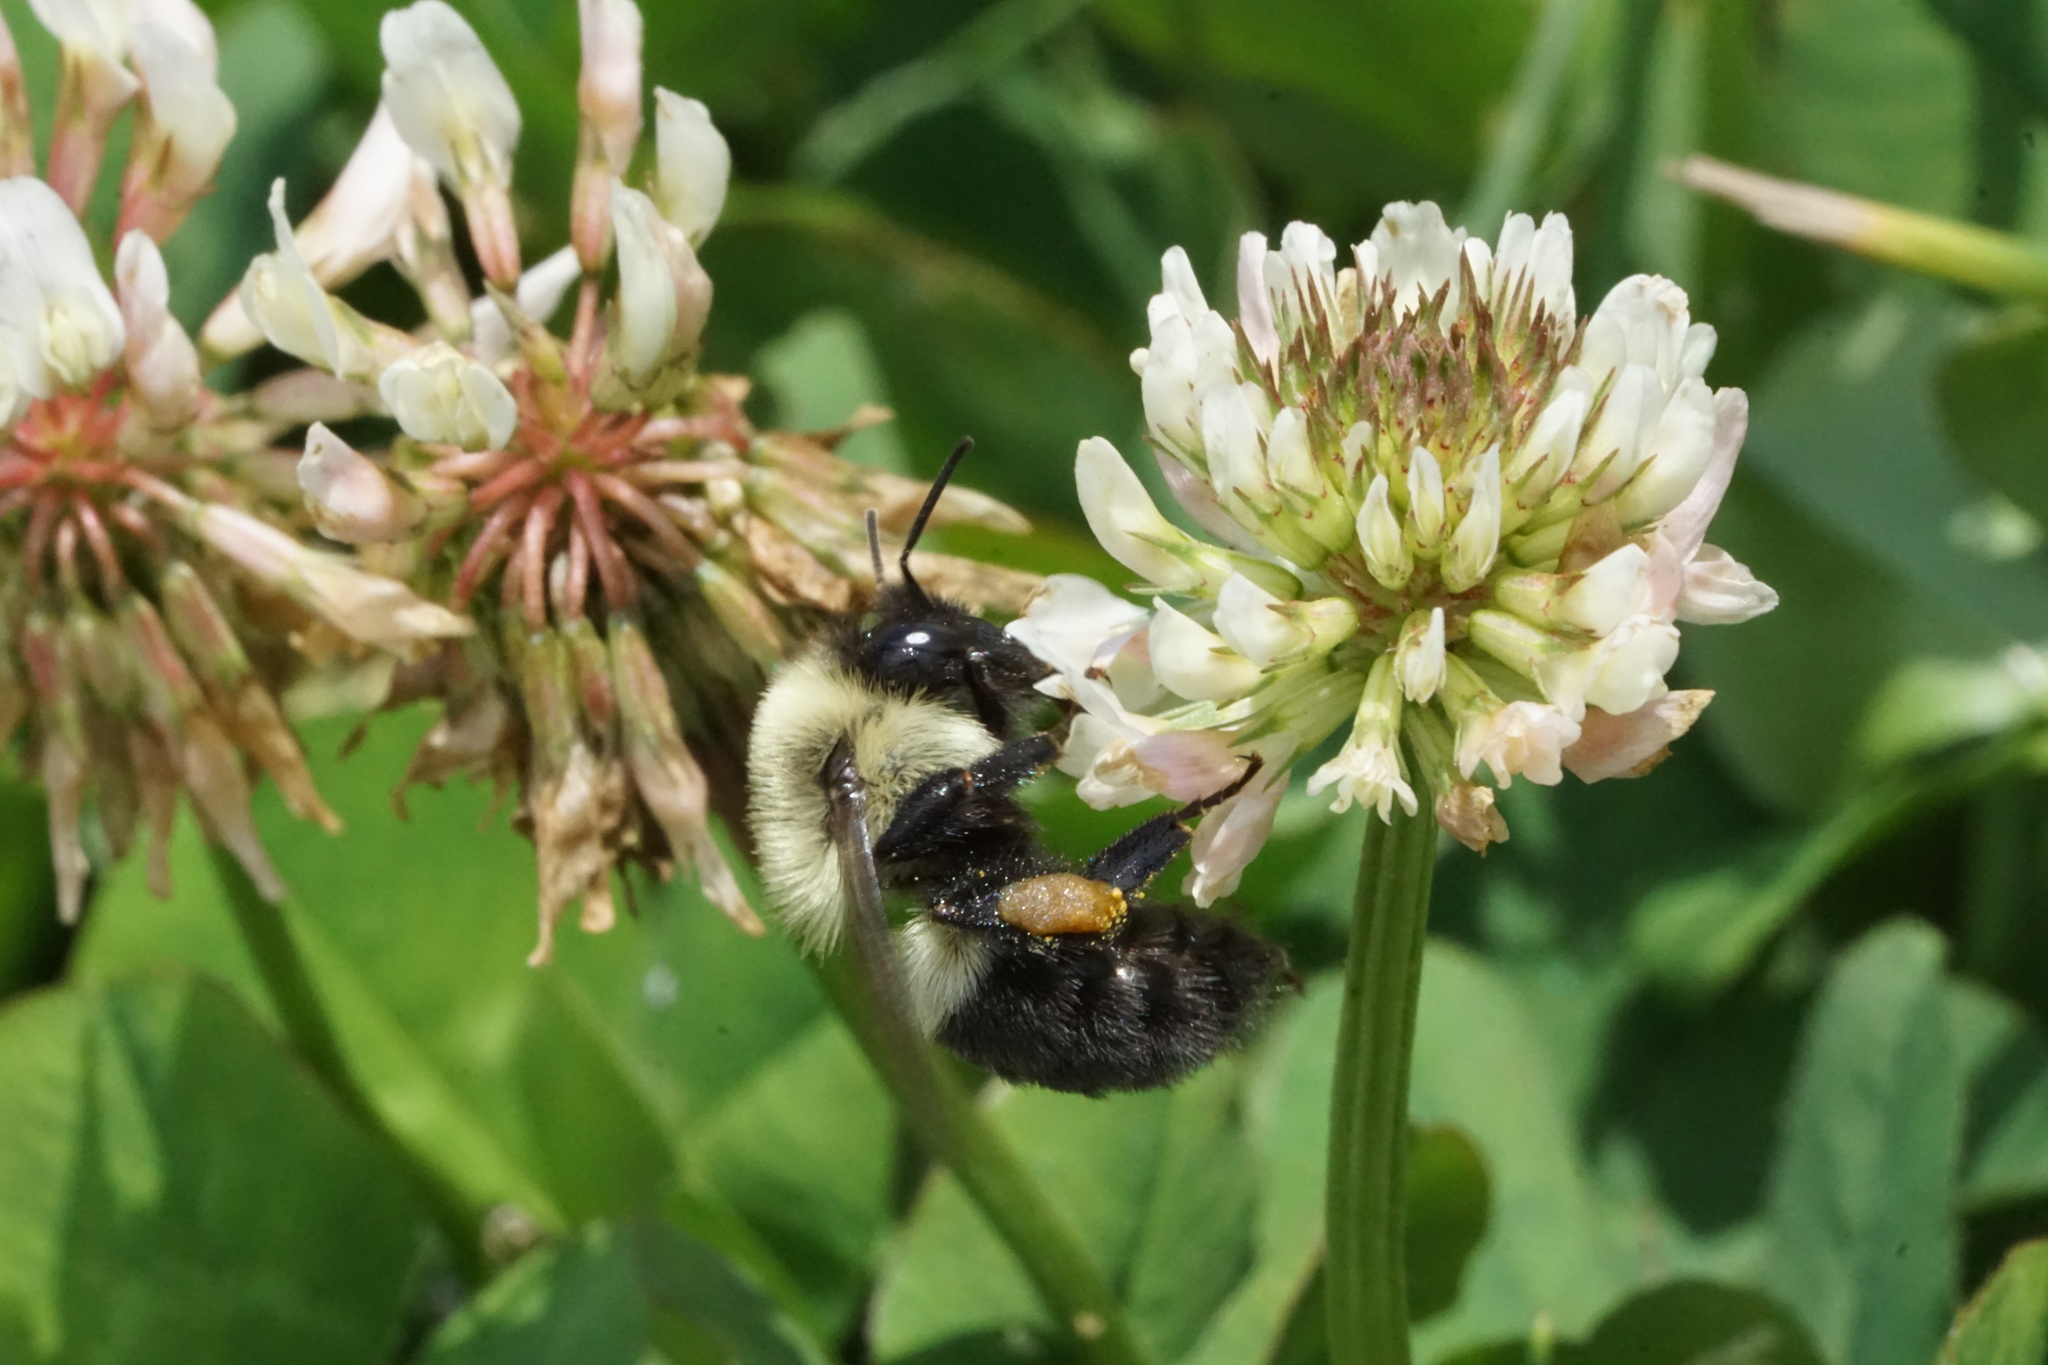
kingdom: Animalia
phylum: Arthropoda
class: Insecta
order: Hymenoptera
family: Apidae
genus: Bombus
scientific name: Bombus impatiens
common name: Common eastern bumble bee
